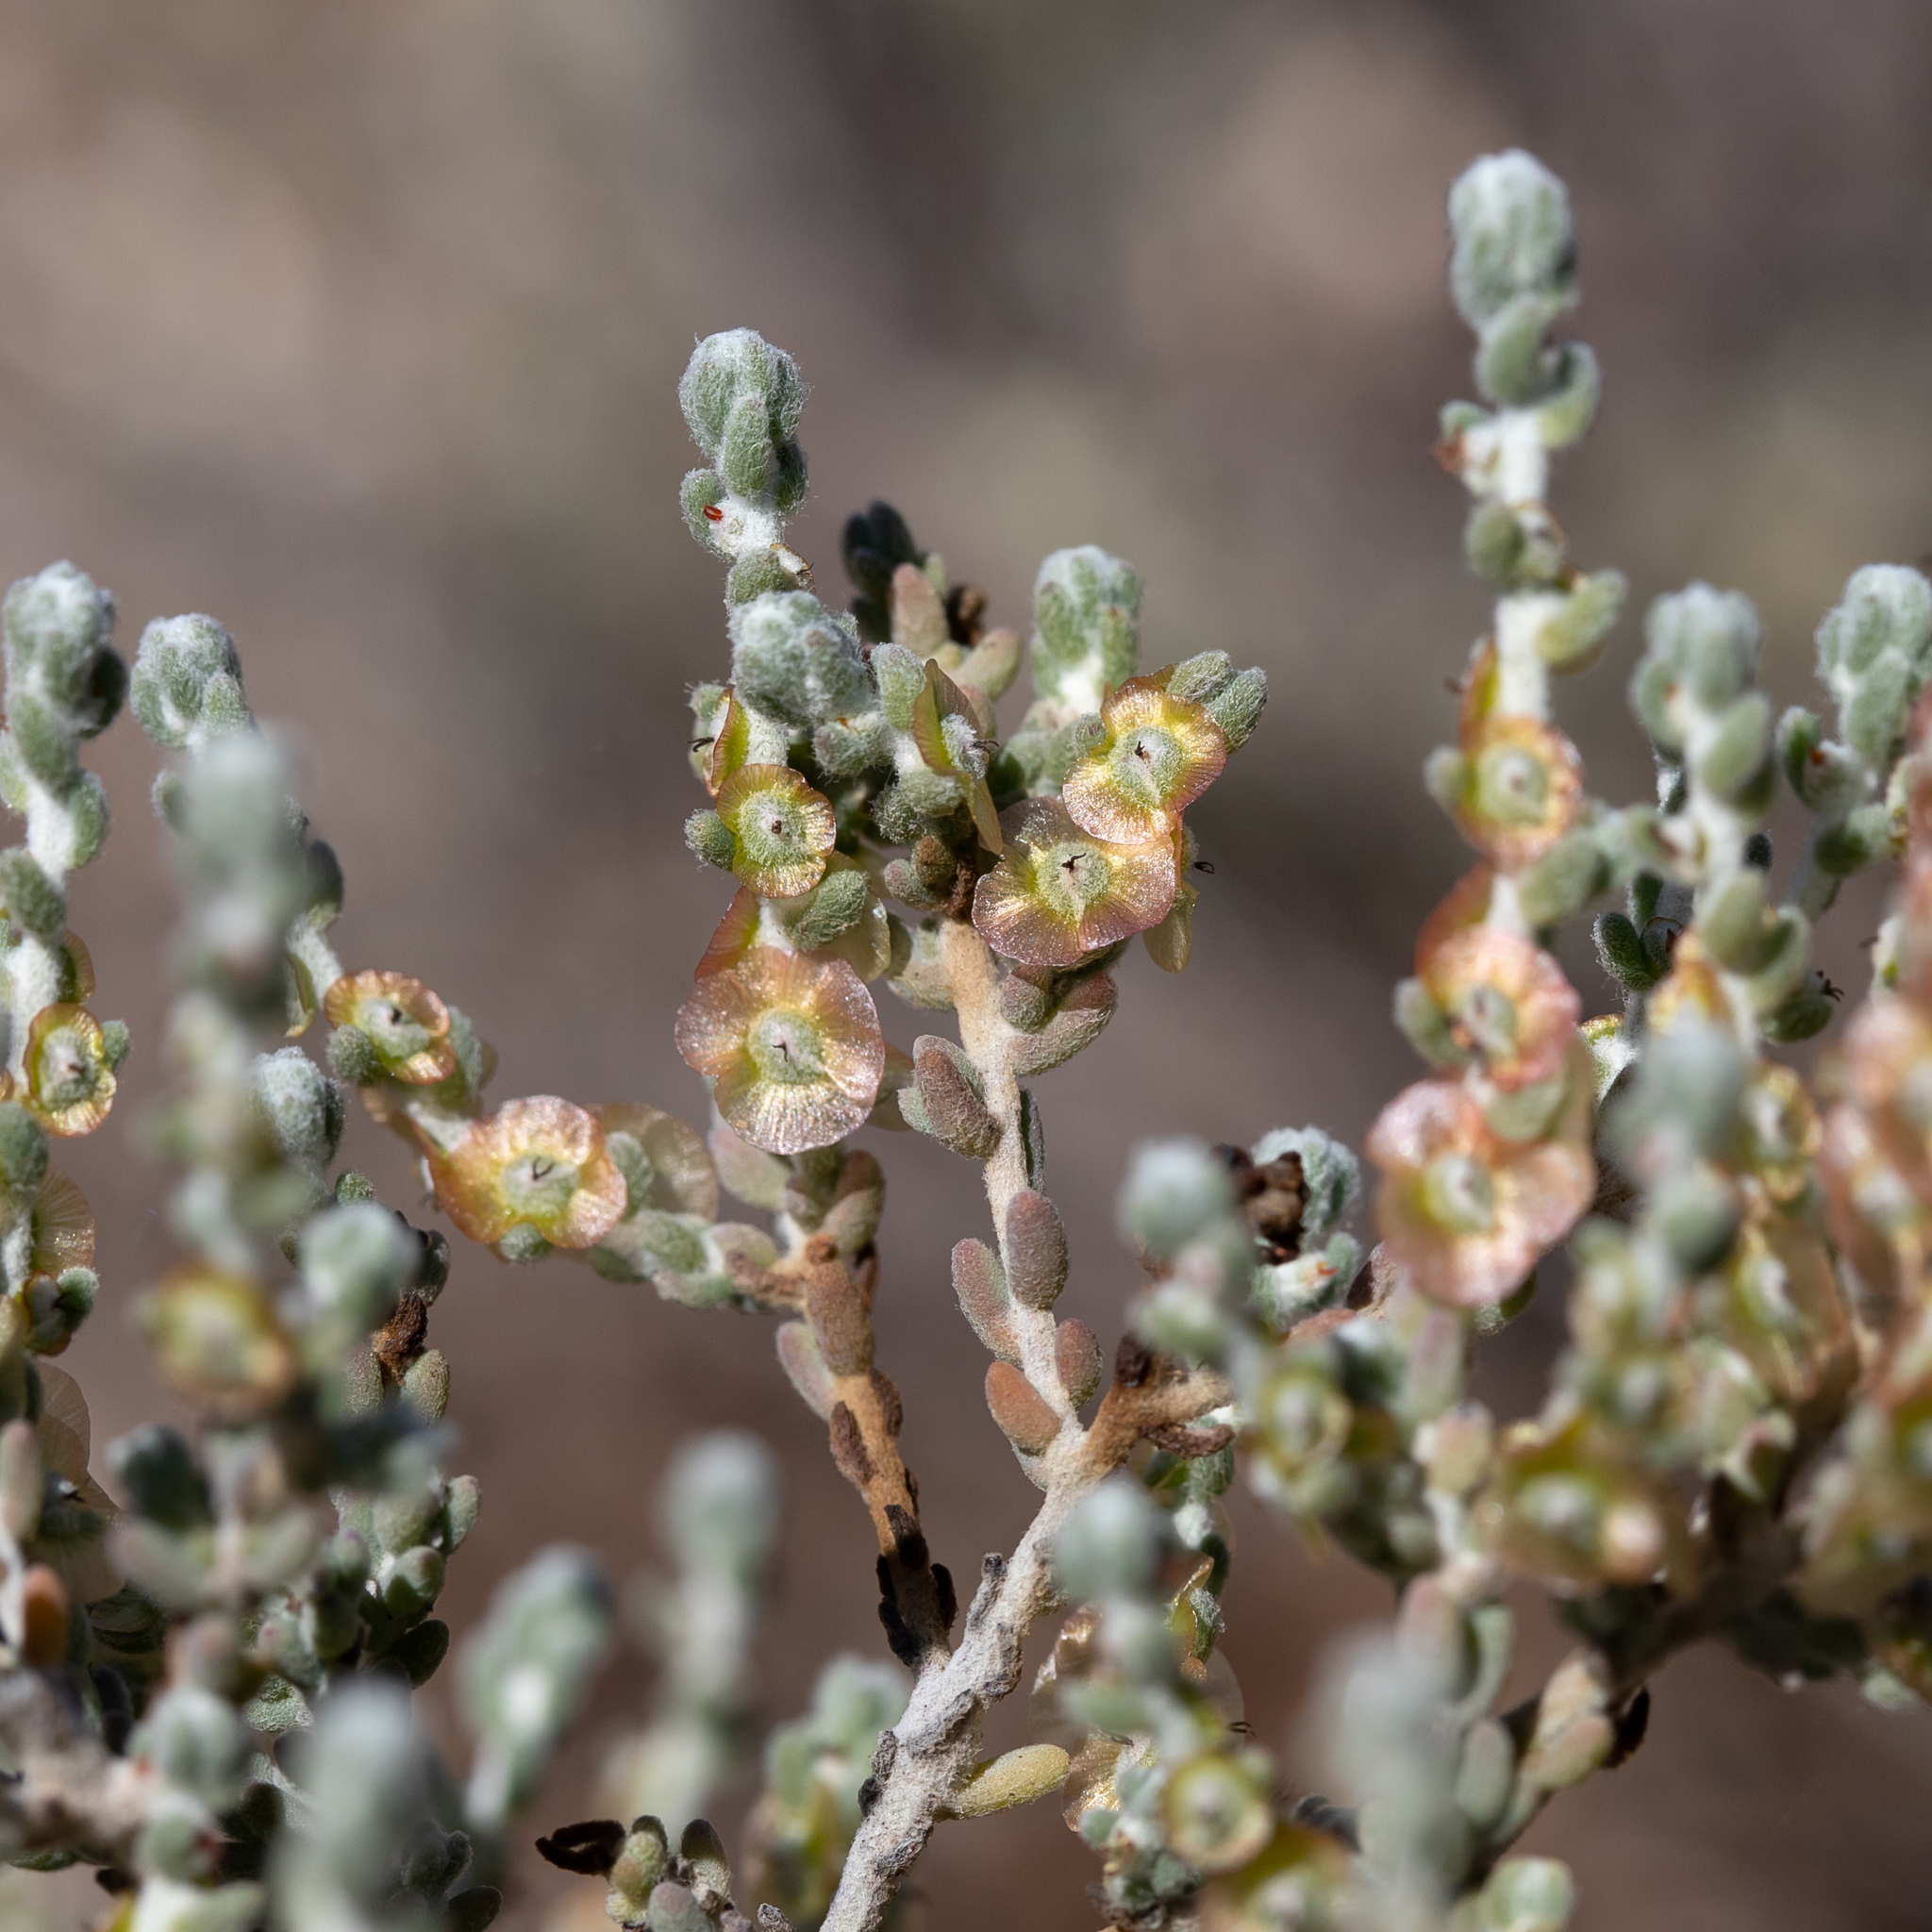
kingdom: Plantae
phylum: Tracheophyta
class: Magnoliopsida
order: Caryophyllales
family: Amaranthaceae
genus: Maireana
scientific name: Maireana radiata
